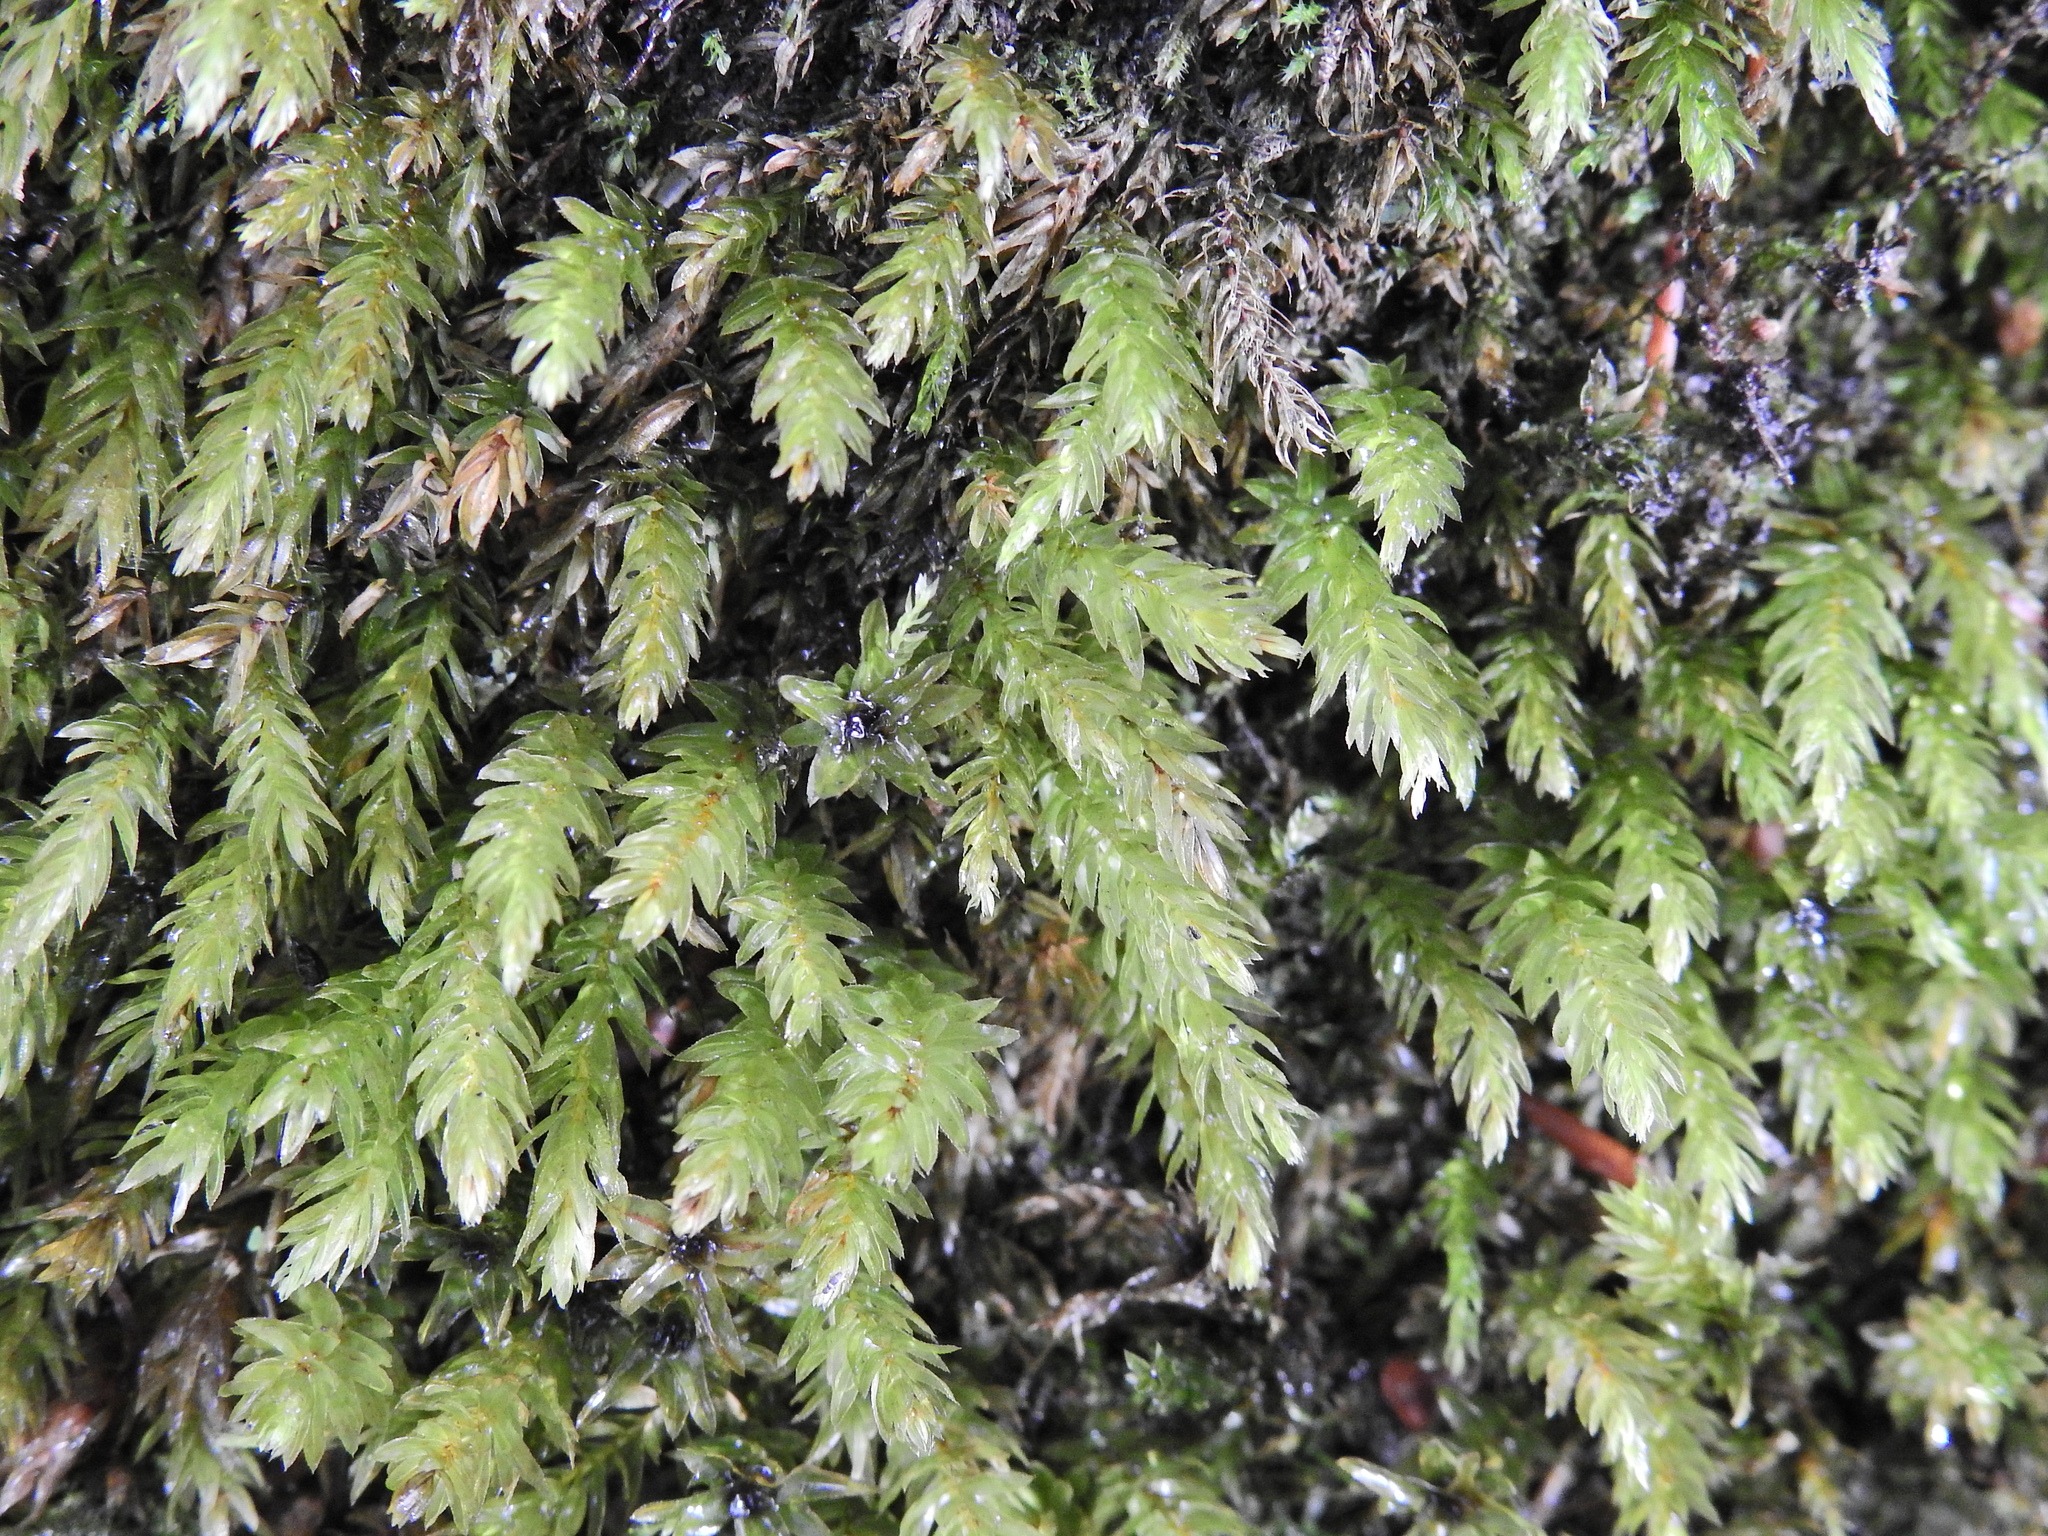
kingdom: Plantae
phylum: Bryophyta
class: Bryopsida
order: Bryales
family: Mniaceae
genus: Mnium
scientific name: Mnium hornum
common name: Swan's-neck leafy moss
